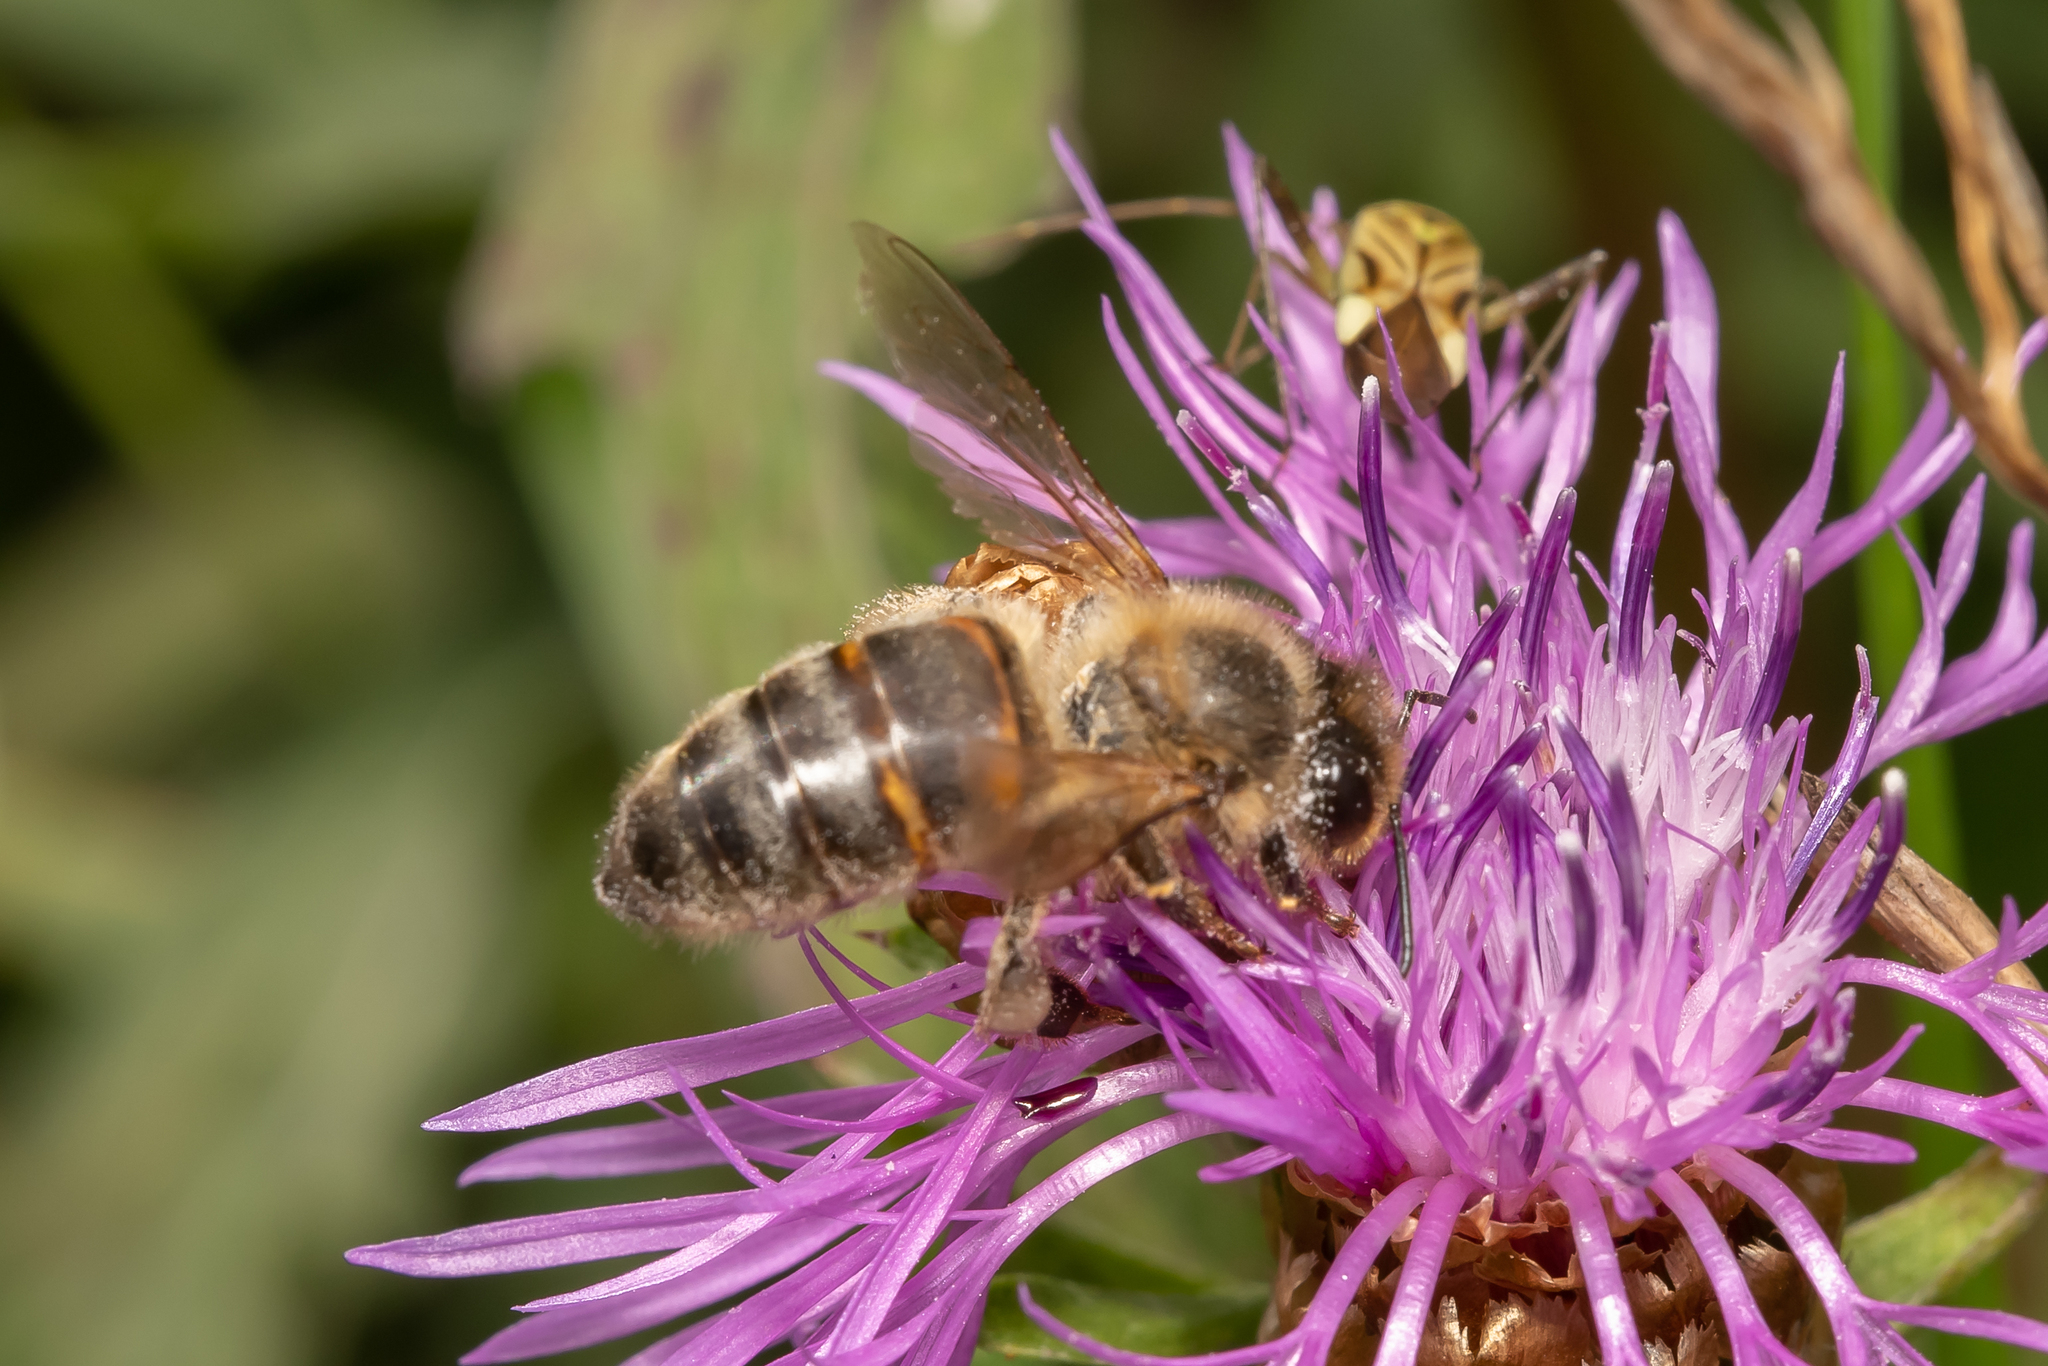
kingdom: Animalia
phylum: Arthropoda
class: Insecta
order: Hymenoptera
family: Apidae
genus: Apis
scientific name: Apis mellifera
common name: Honey bee
